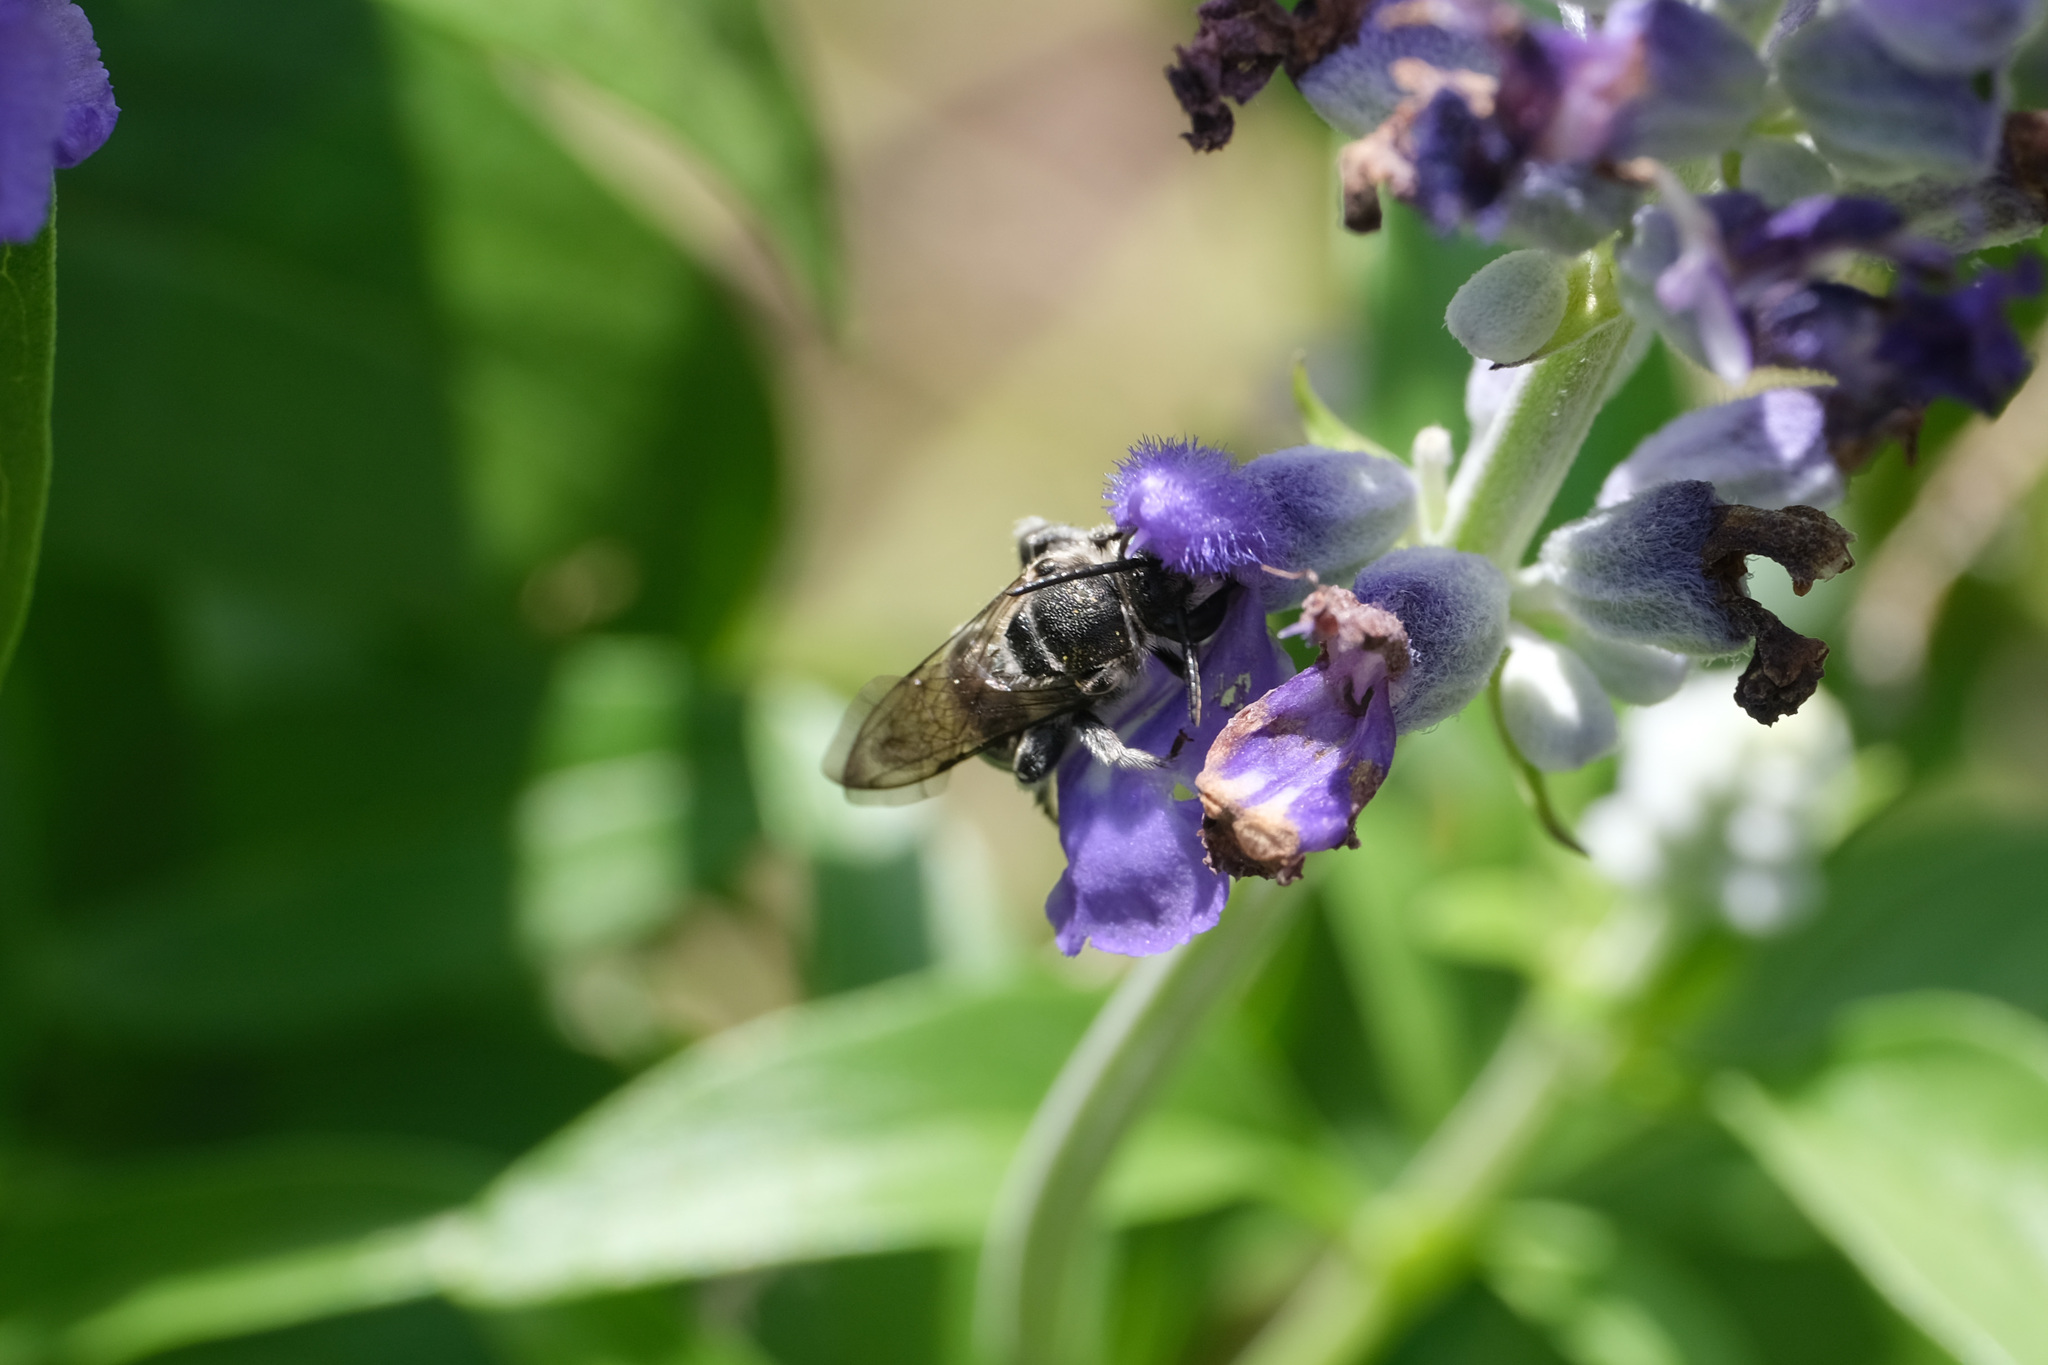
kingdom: Animalia
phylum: Arthropoda
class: Insecta
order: Hymenoptera
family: Halictidae
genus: Nomia
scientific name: Nomia incerta
